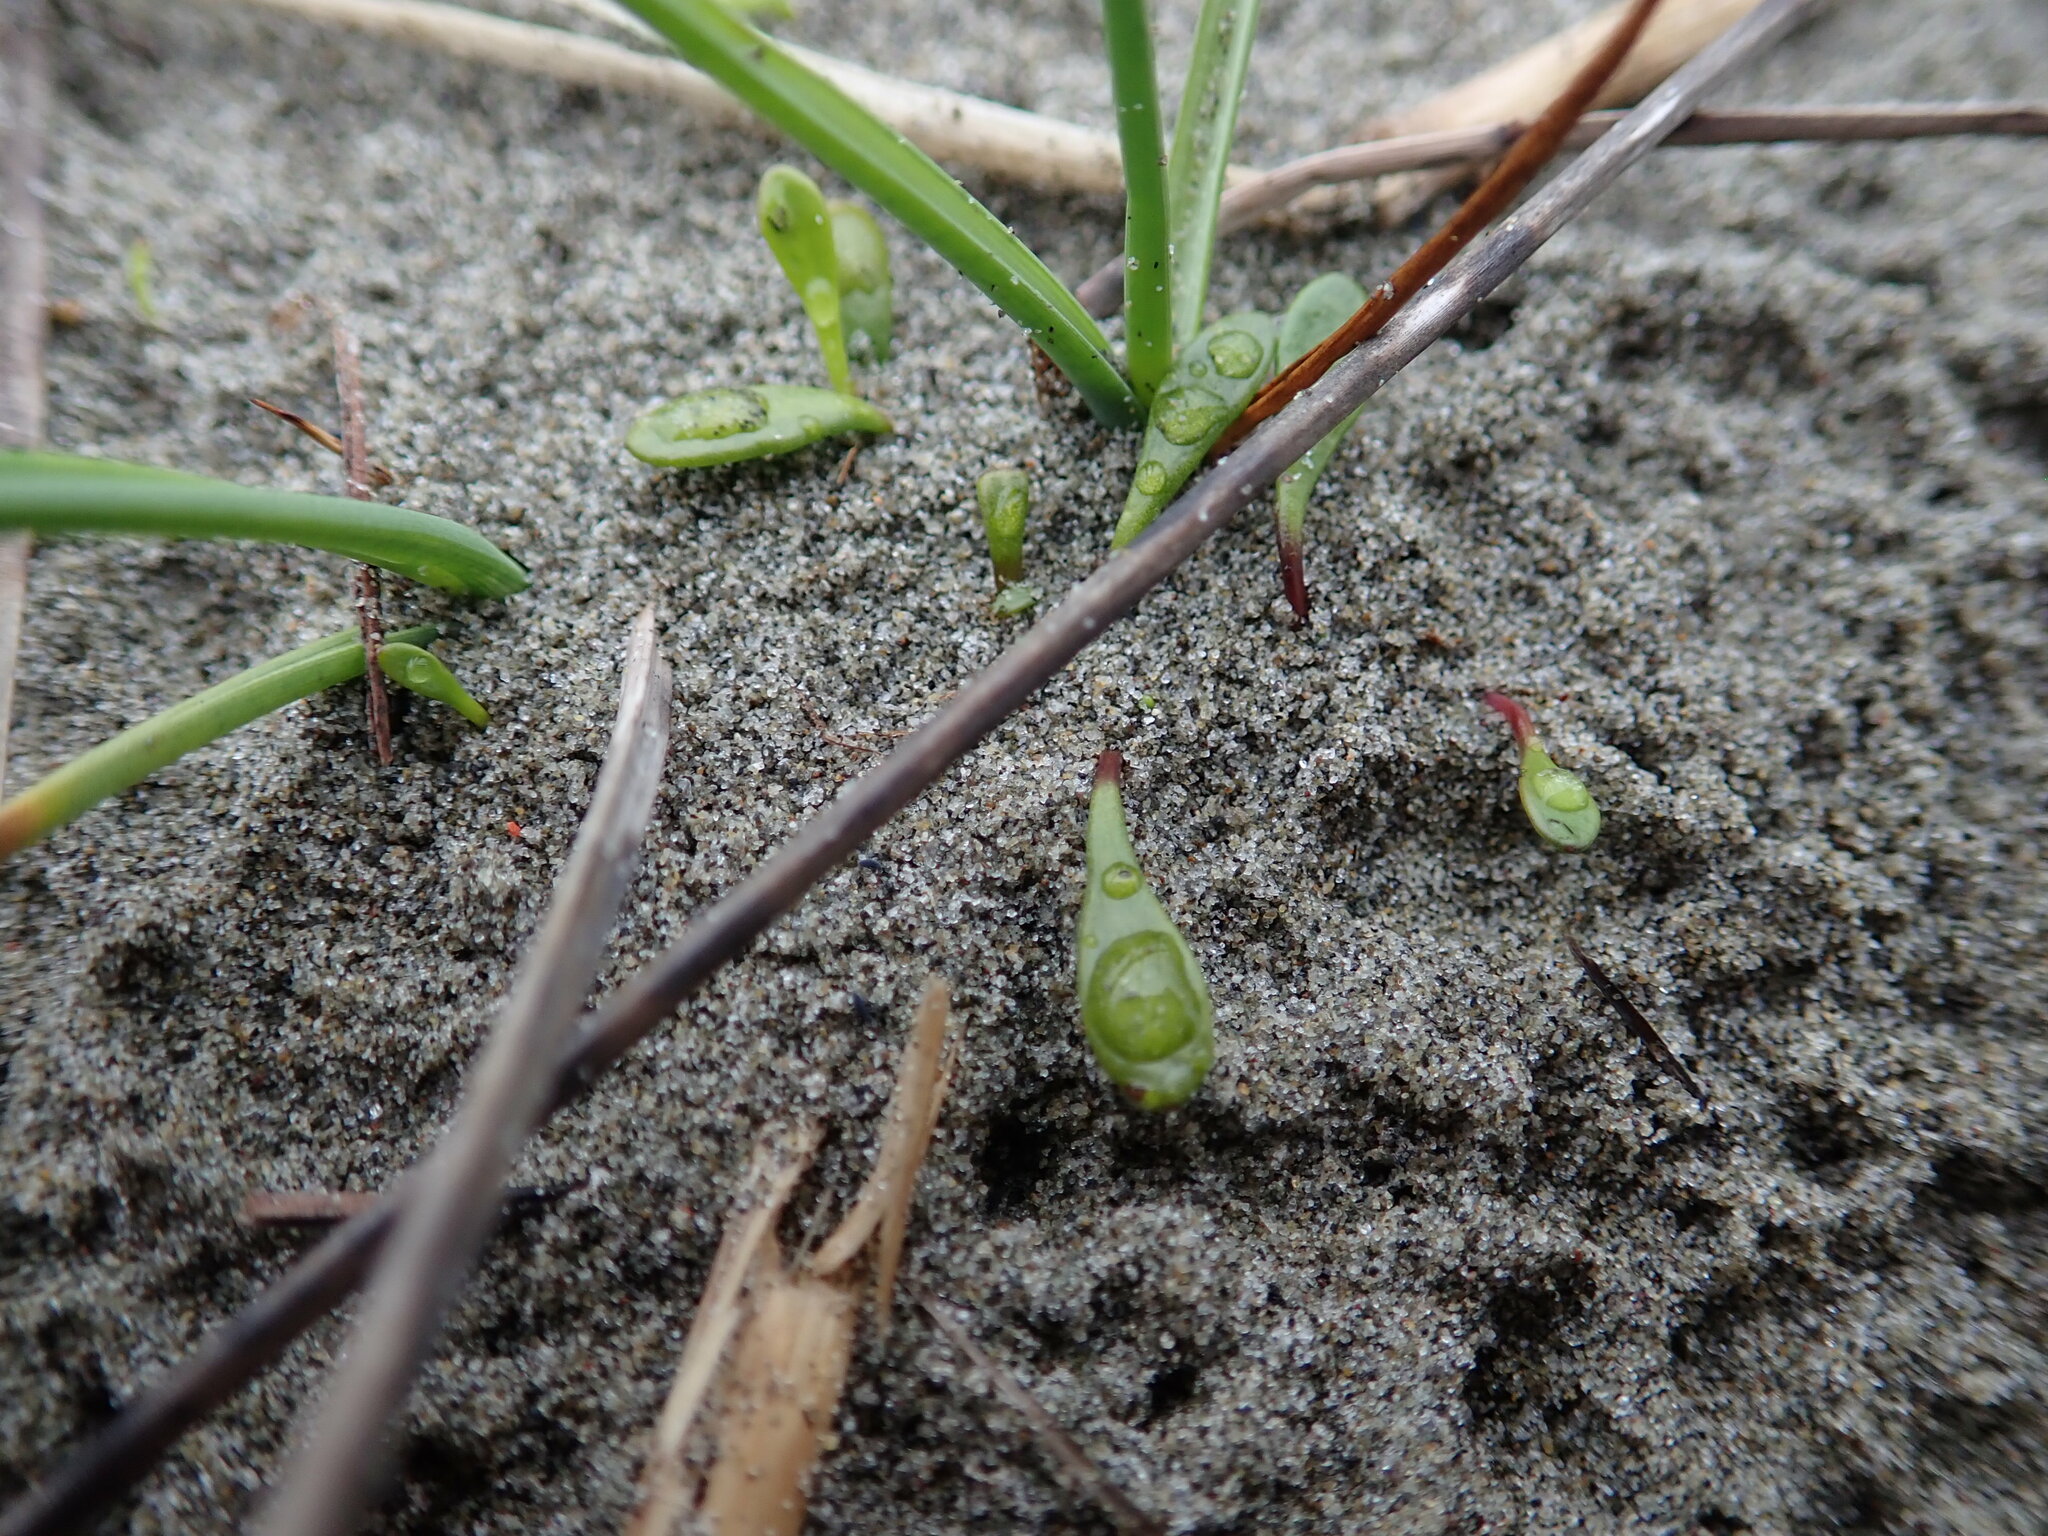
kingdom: Plantae
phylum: Tracheophyta
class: Magnoliopsida
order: Asterales
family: Goodeniaceae
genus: Goodenia
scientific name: Goodenia radicans
